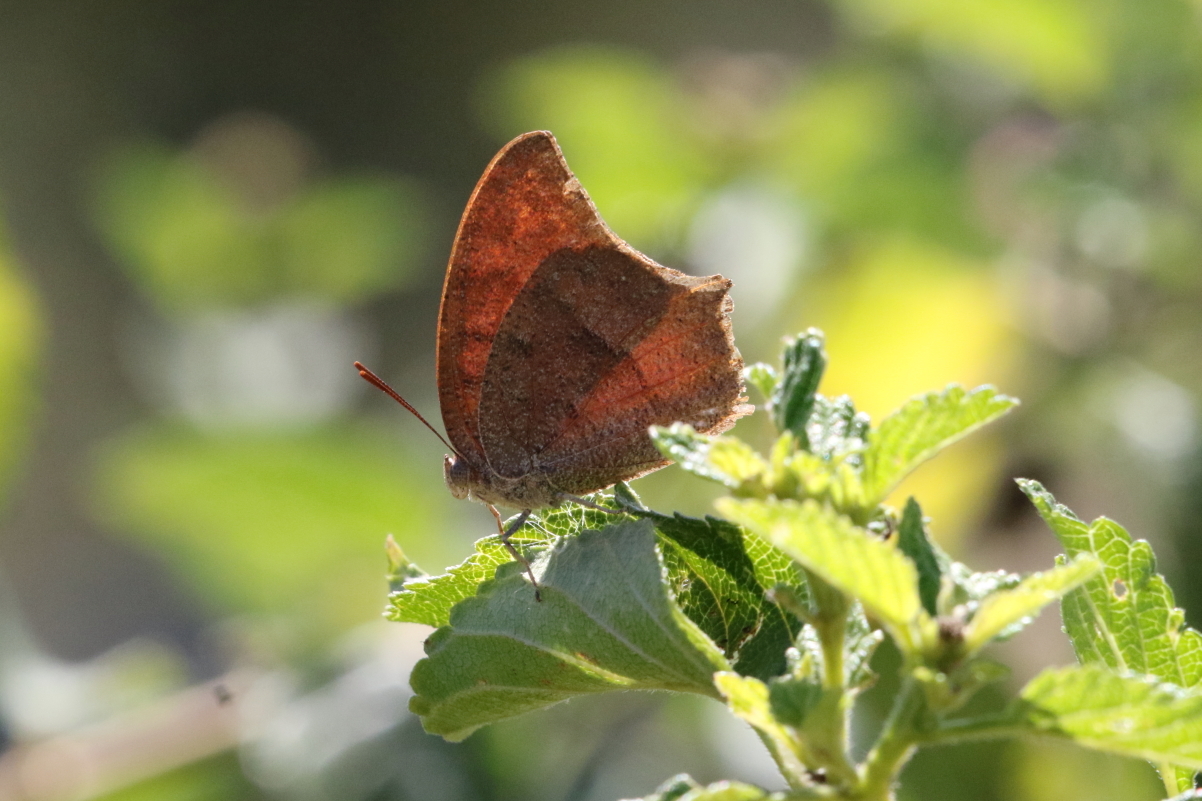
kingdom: Animalia
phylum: Arthropoda
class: Insecta
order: Lepidoptera
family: Nymphalidae
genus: Anaea
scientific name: Anaea andria
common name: Goatweed leafwing
